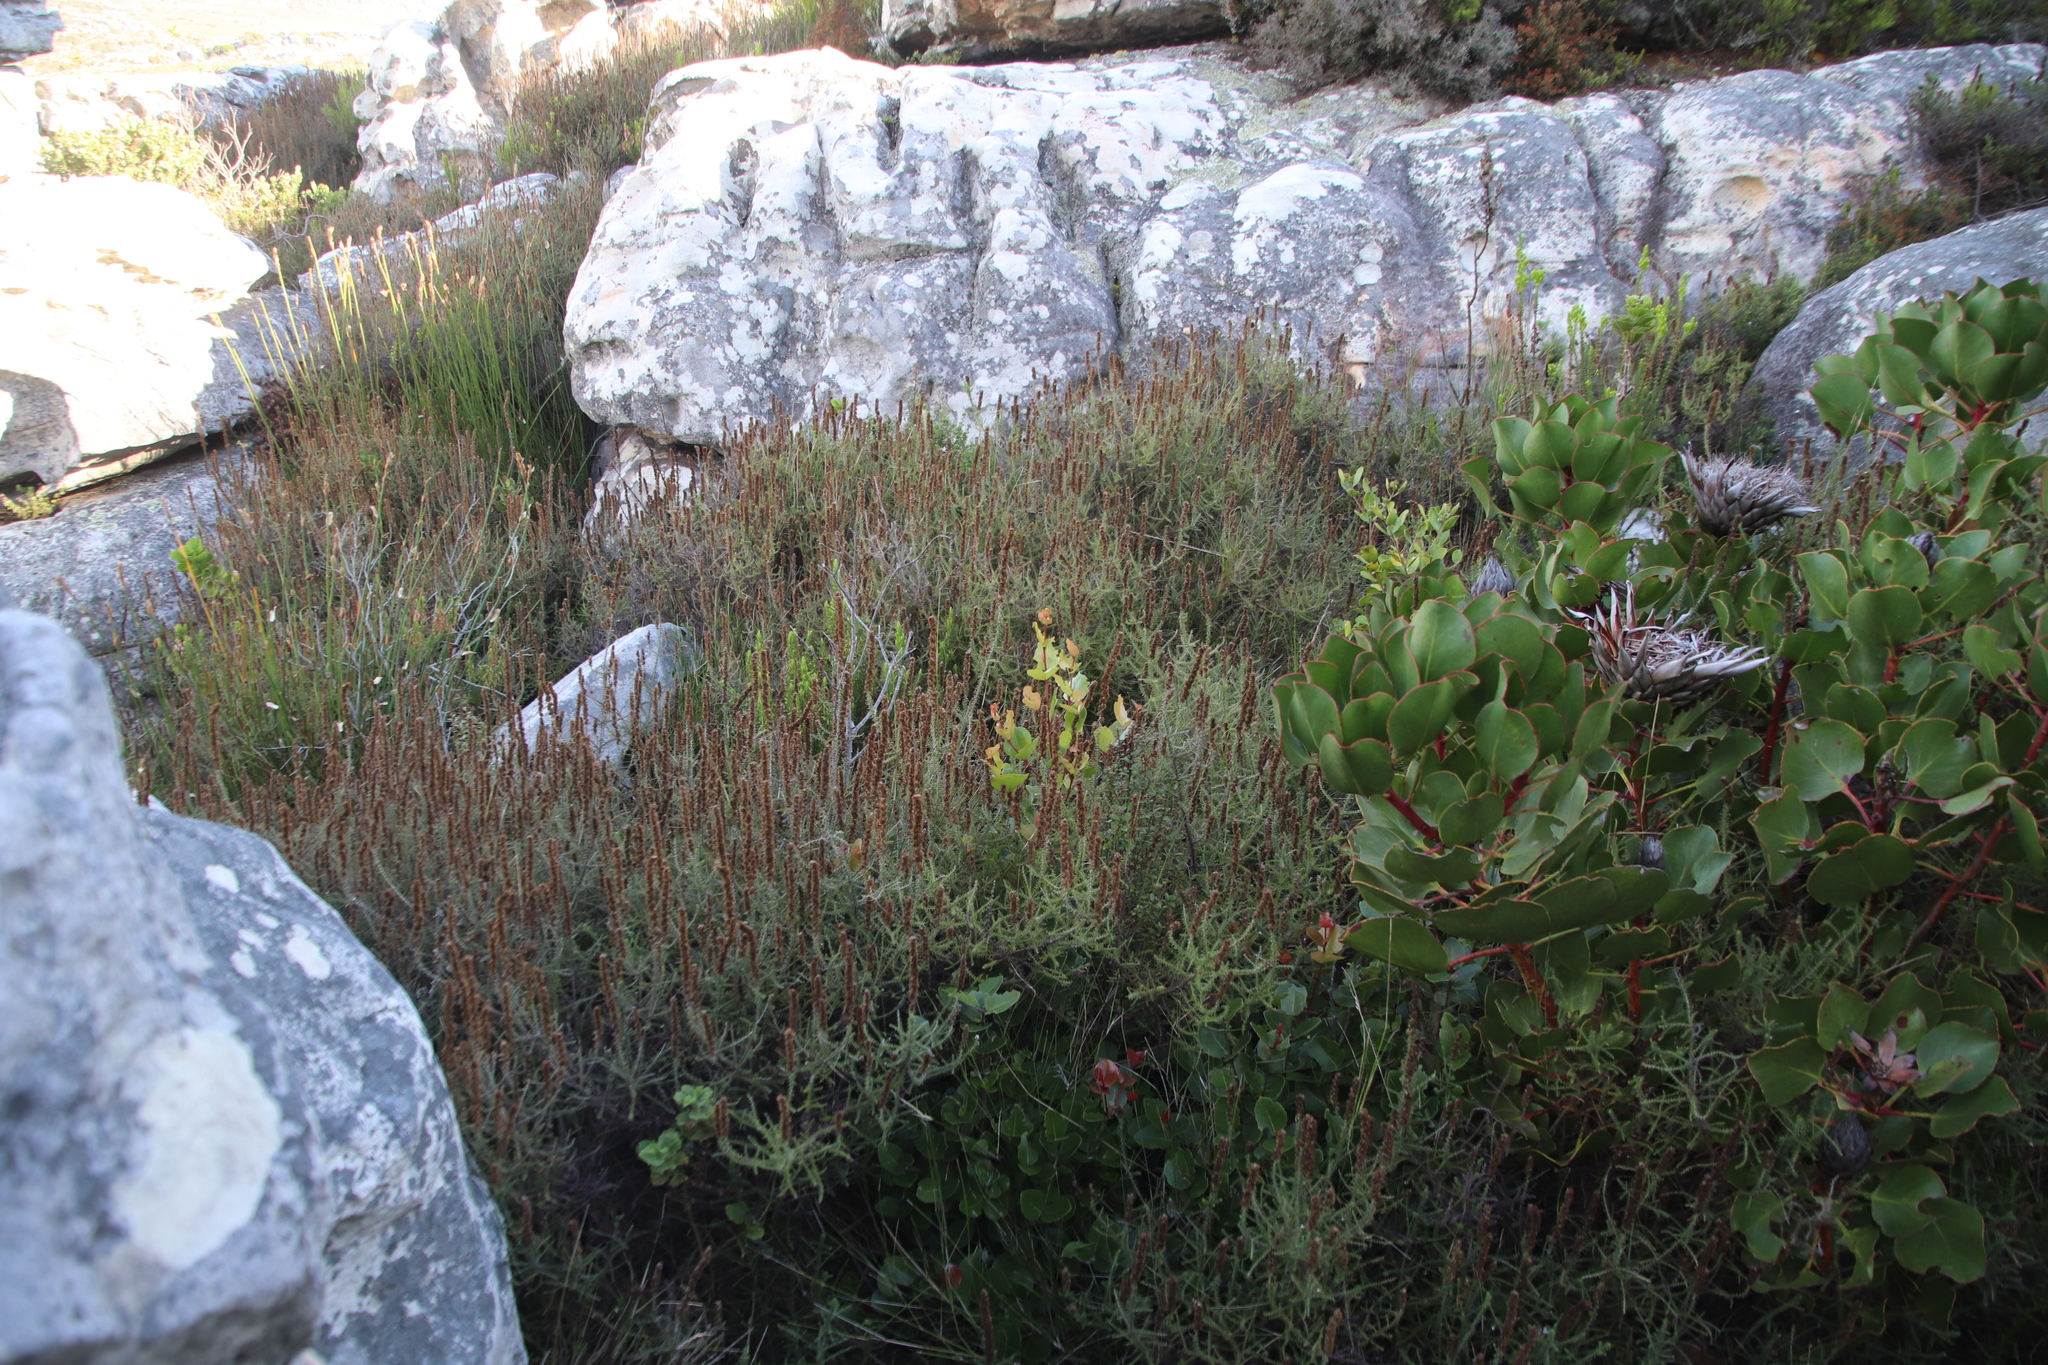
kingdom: Plantae
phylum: Tracheophyta
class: Magnoliopsida
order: Asterales
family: Asteraceae
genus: Seriphium
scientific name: Seriphium cinereum
